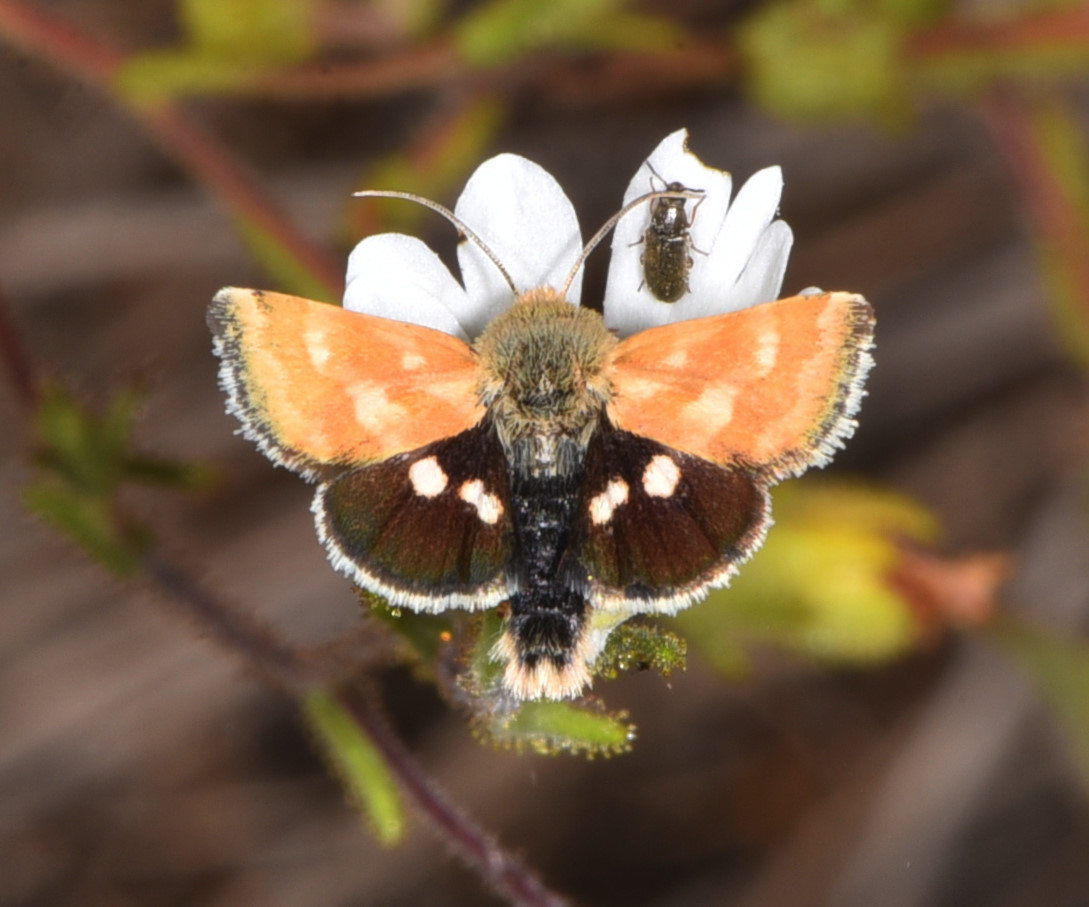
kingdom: Animalia
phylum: Arthropoda
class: Insecta
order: Lepidoptera
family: Noctuidae
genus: Heliothodes
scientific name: Heliothodes diminutiva
